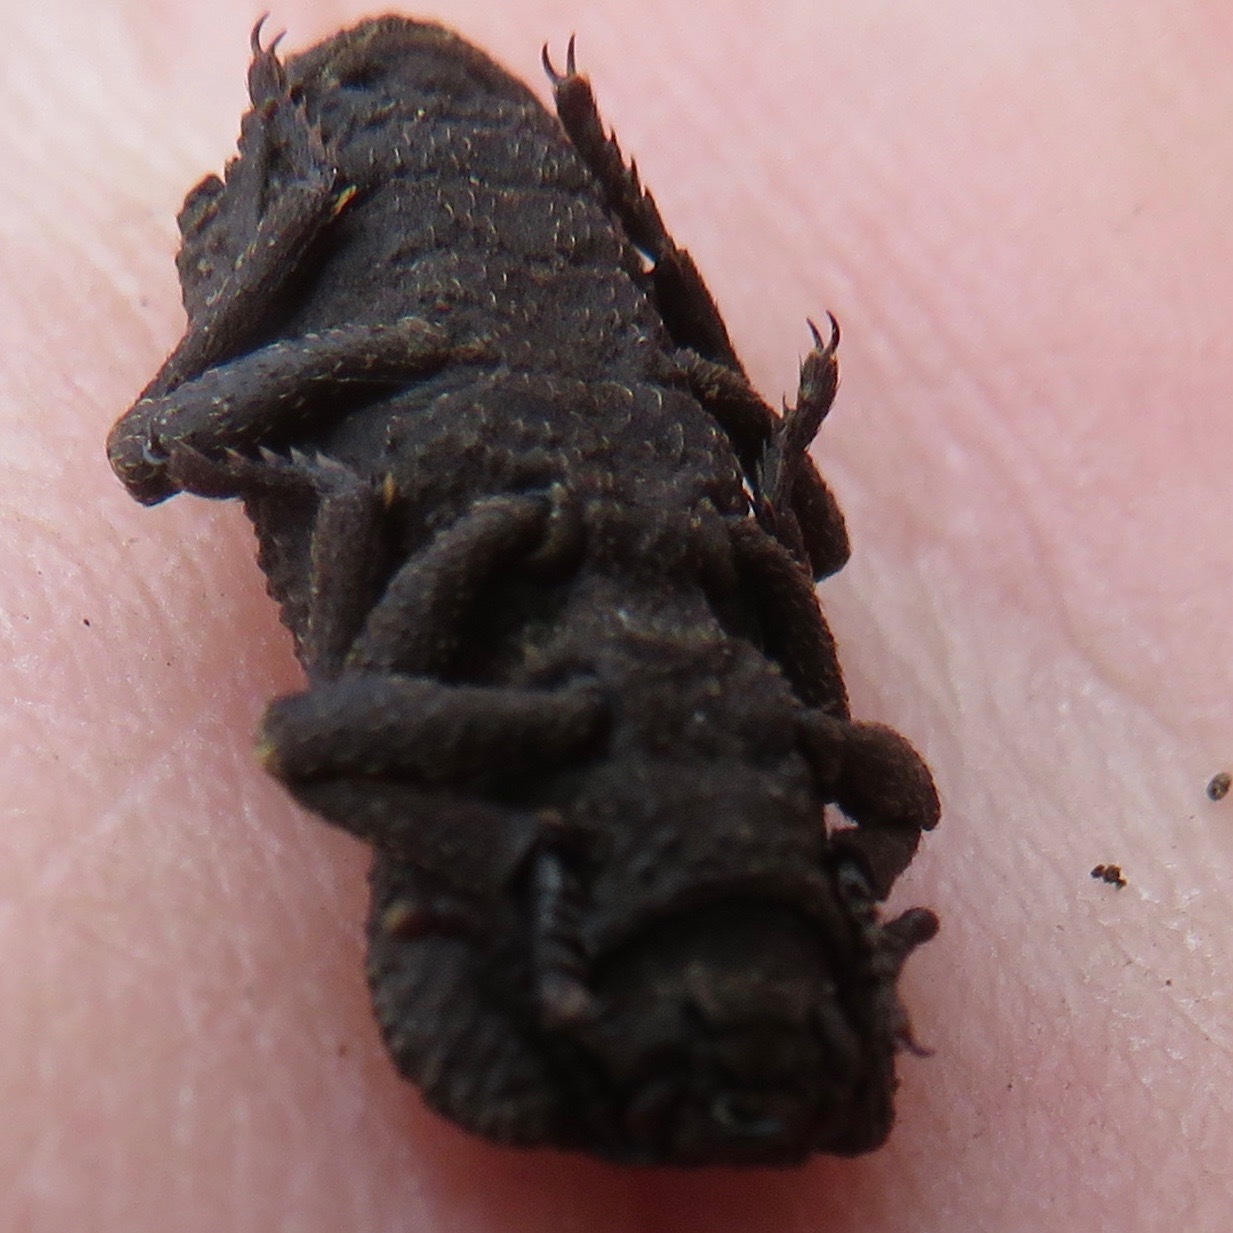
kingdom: Animalia
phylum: Arthropoda
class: Insecta
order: Coleoptera
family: Zopheridae
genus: Phloeodes
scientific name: Phloeodes plicatus
